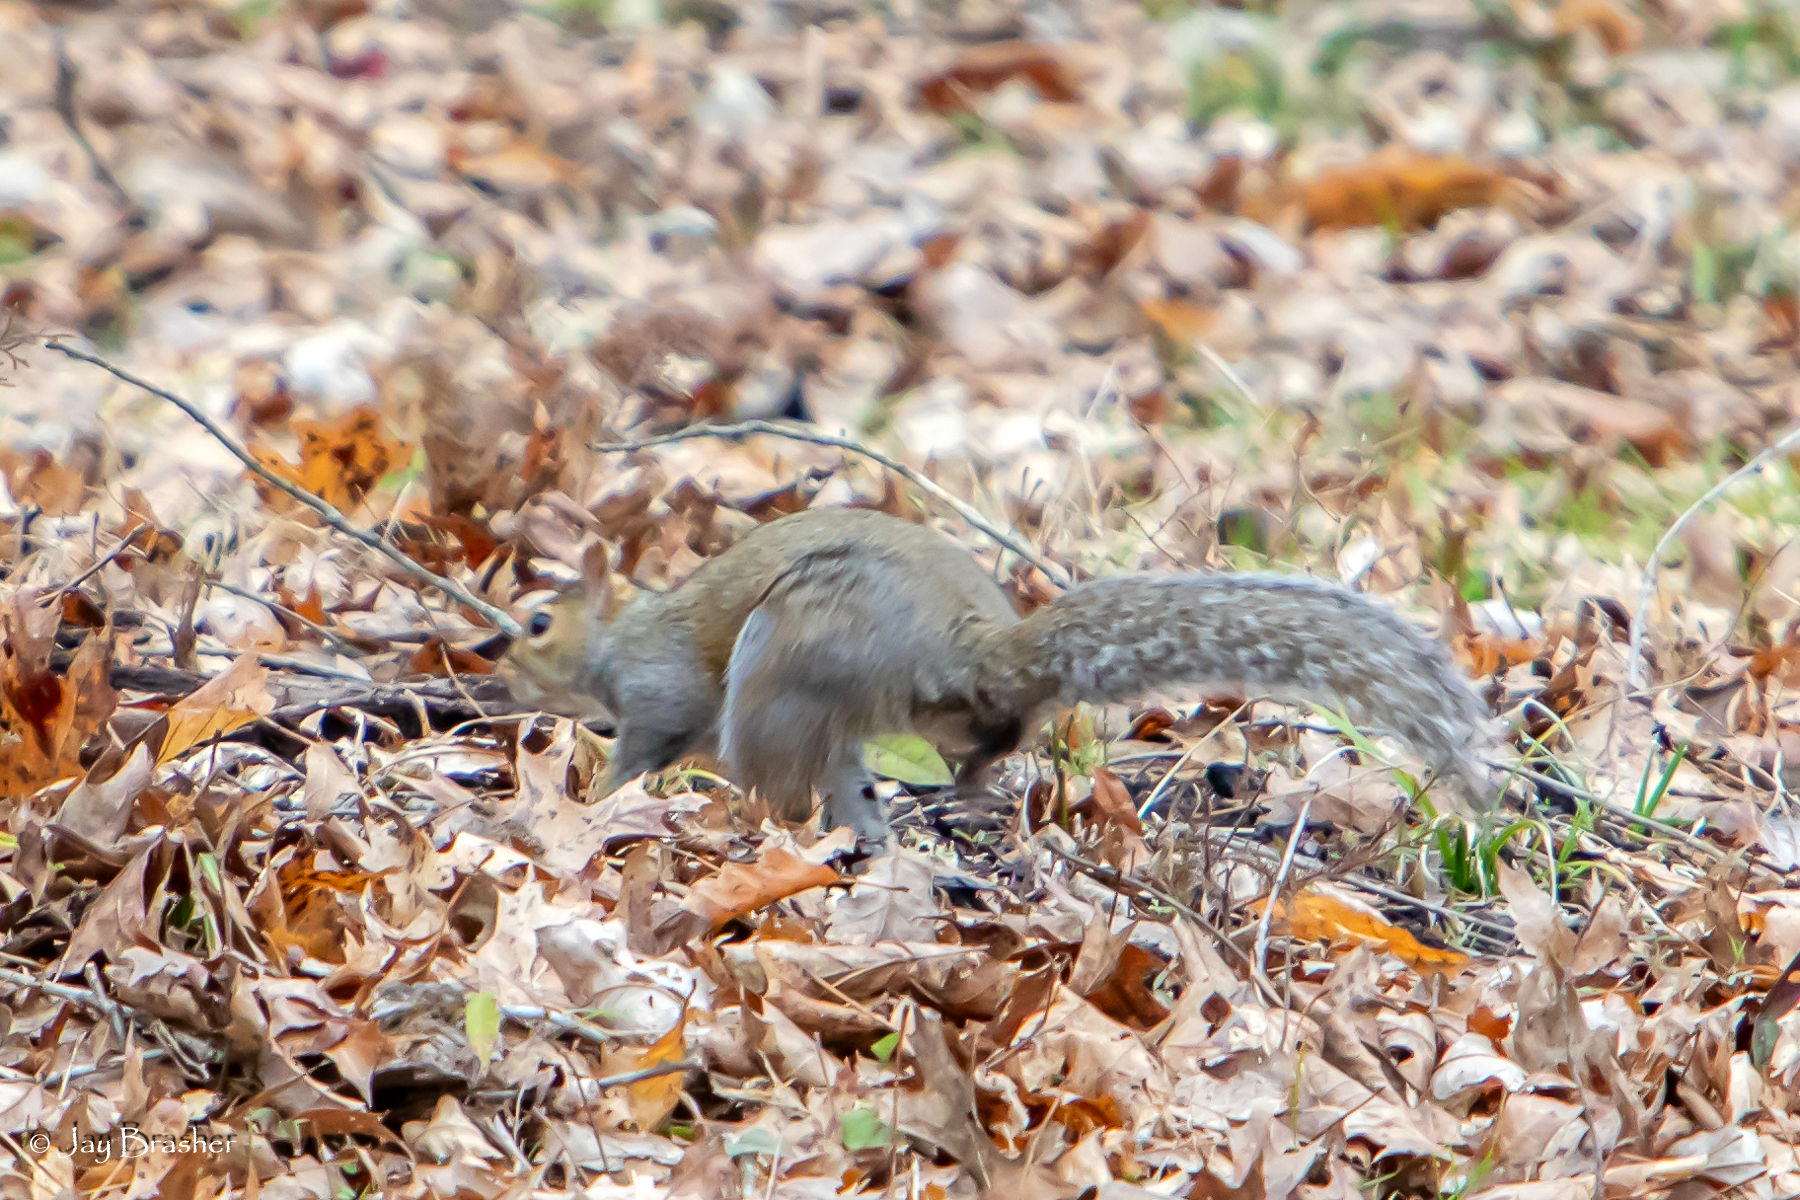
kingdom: Animalia
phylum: Chordata
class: Mammalia
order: Rodentia
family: Sciuridae
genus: Sciurus
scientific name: Sciurus carolinensis
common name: Eastern gray squirrel
